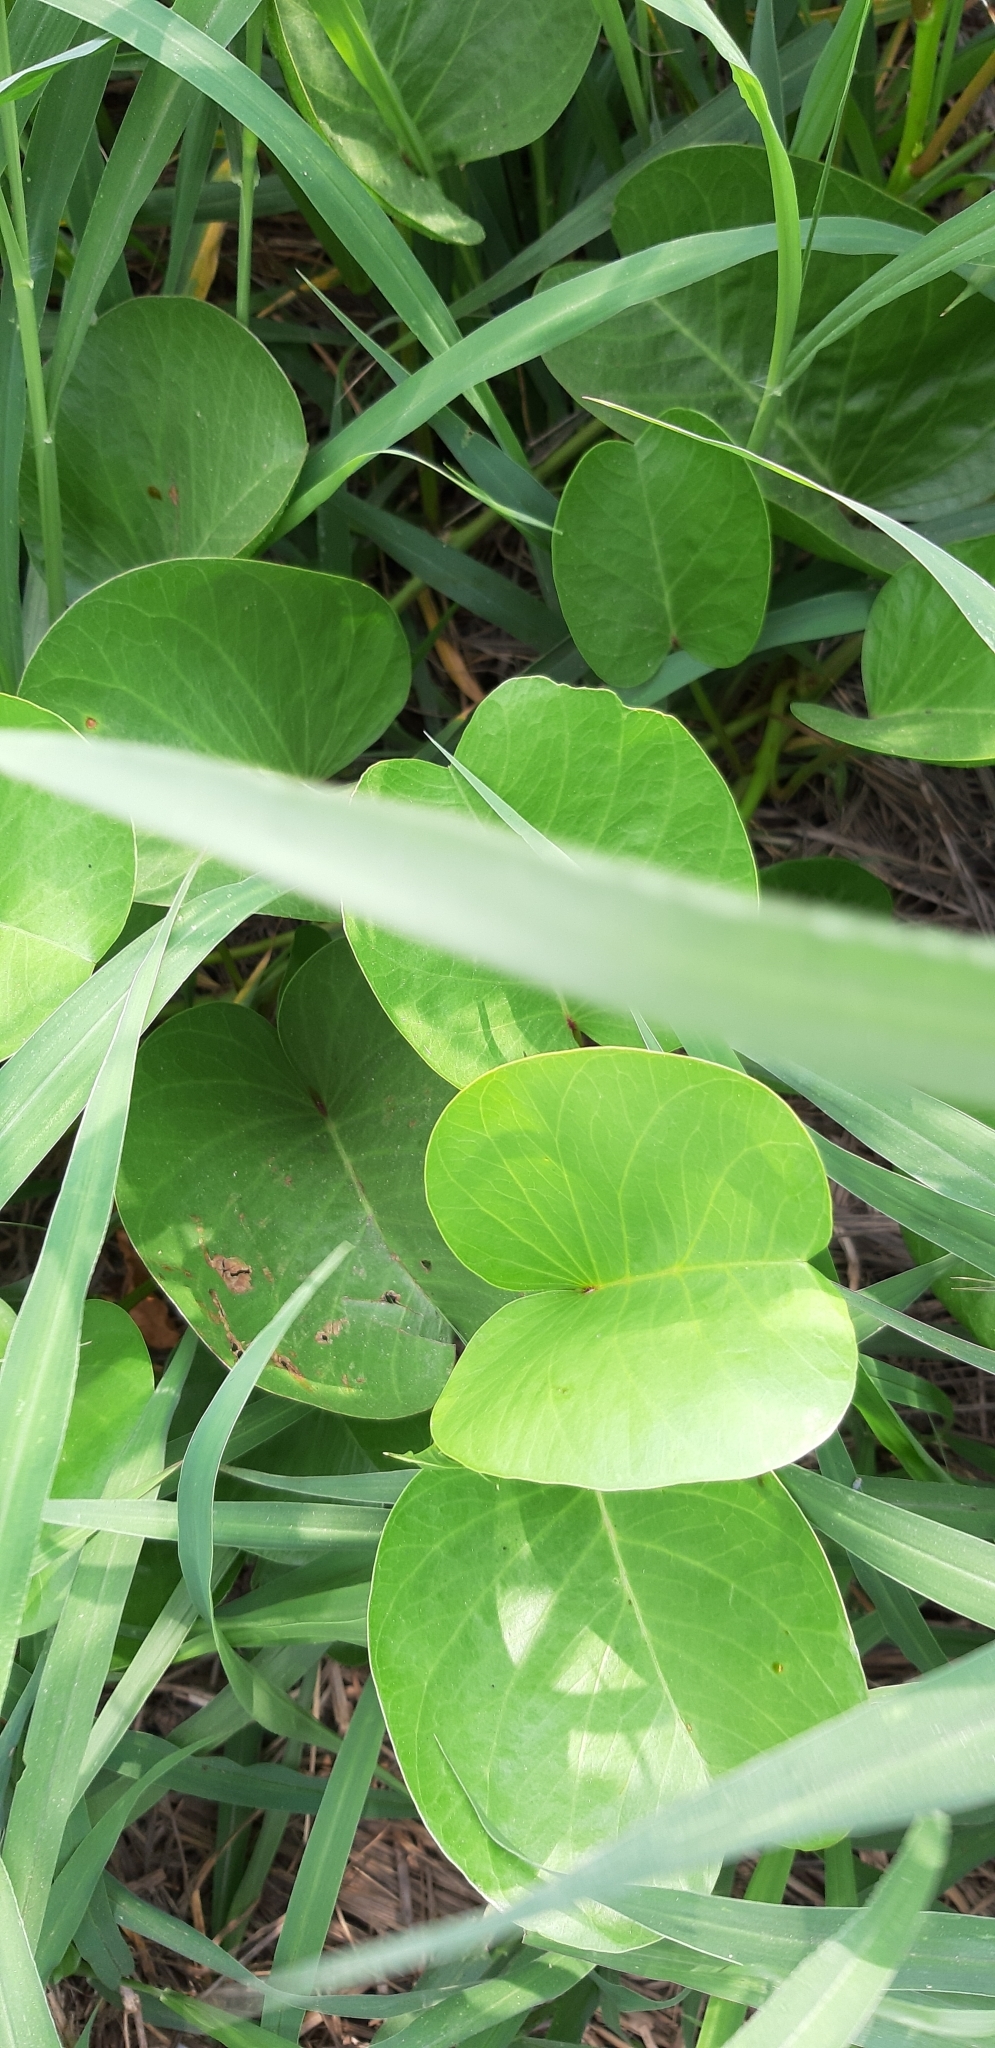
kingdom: Plantae
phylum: Tracheophyta
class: Magnoliopsida
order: Solanales
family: Convolvulaceae
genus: Ipomoea
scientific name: Ipomoea pes-caprae
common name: Beach morning glory
